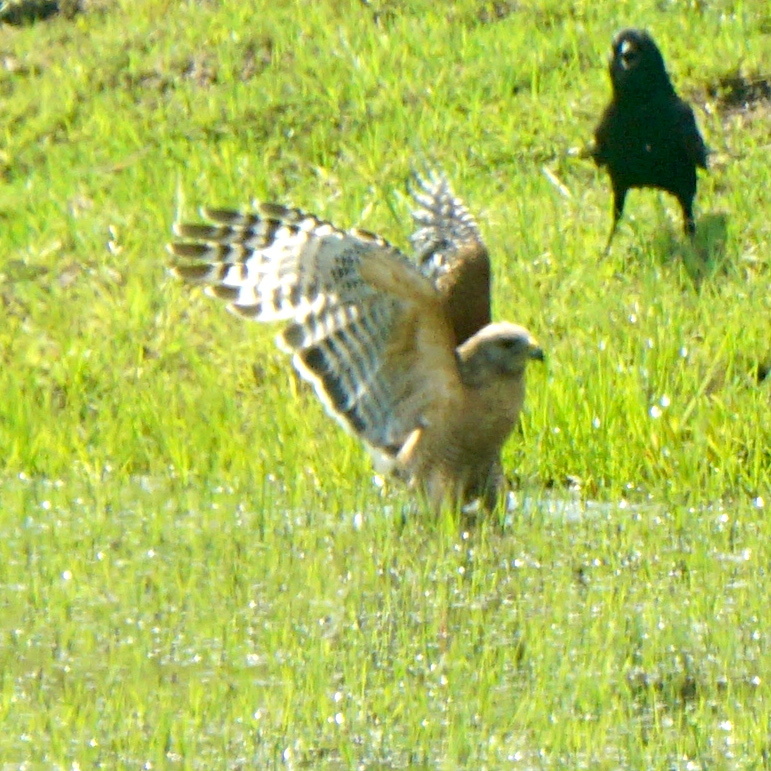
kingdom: Animalia
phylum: Chordata
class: Aves
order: Accipitriformes
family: Accipitridae
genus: Buteo
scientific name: Buteo lineatus
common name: Red-shouldered hawk
